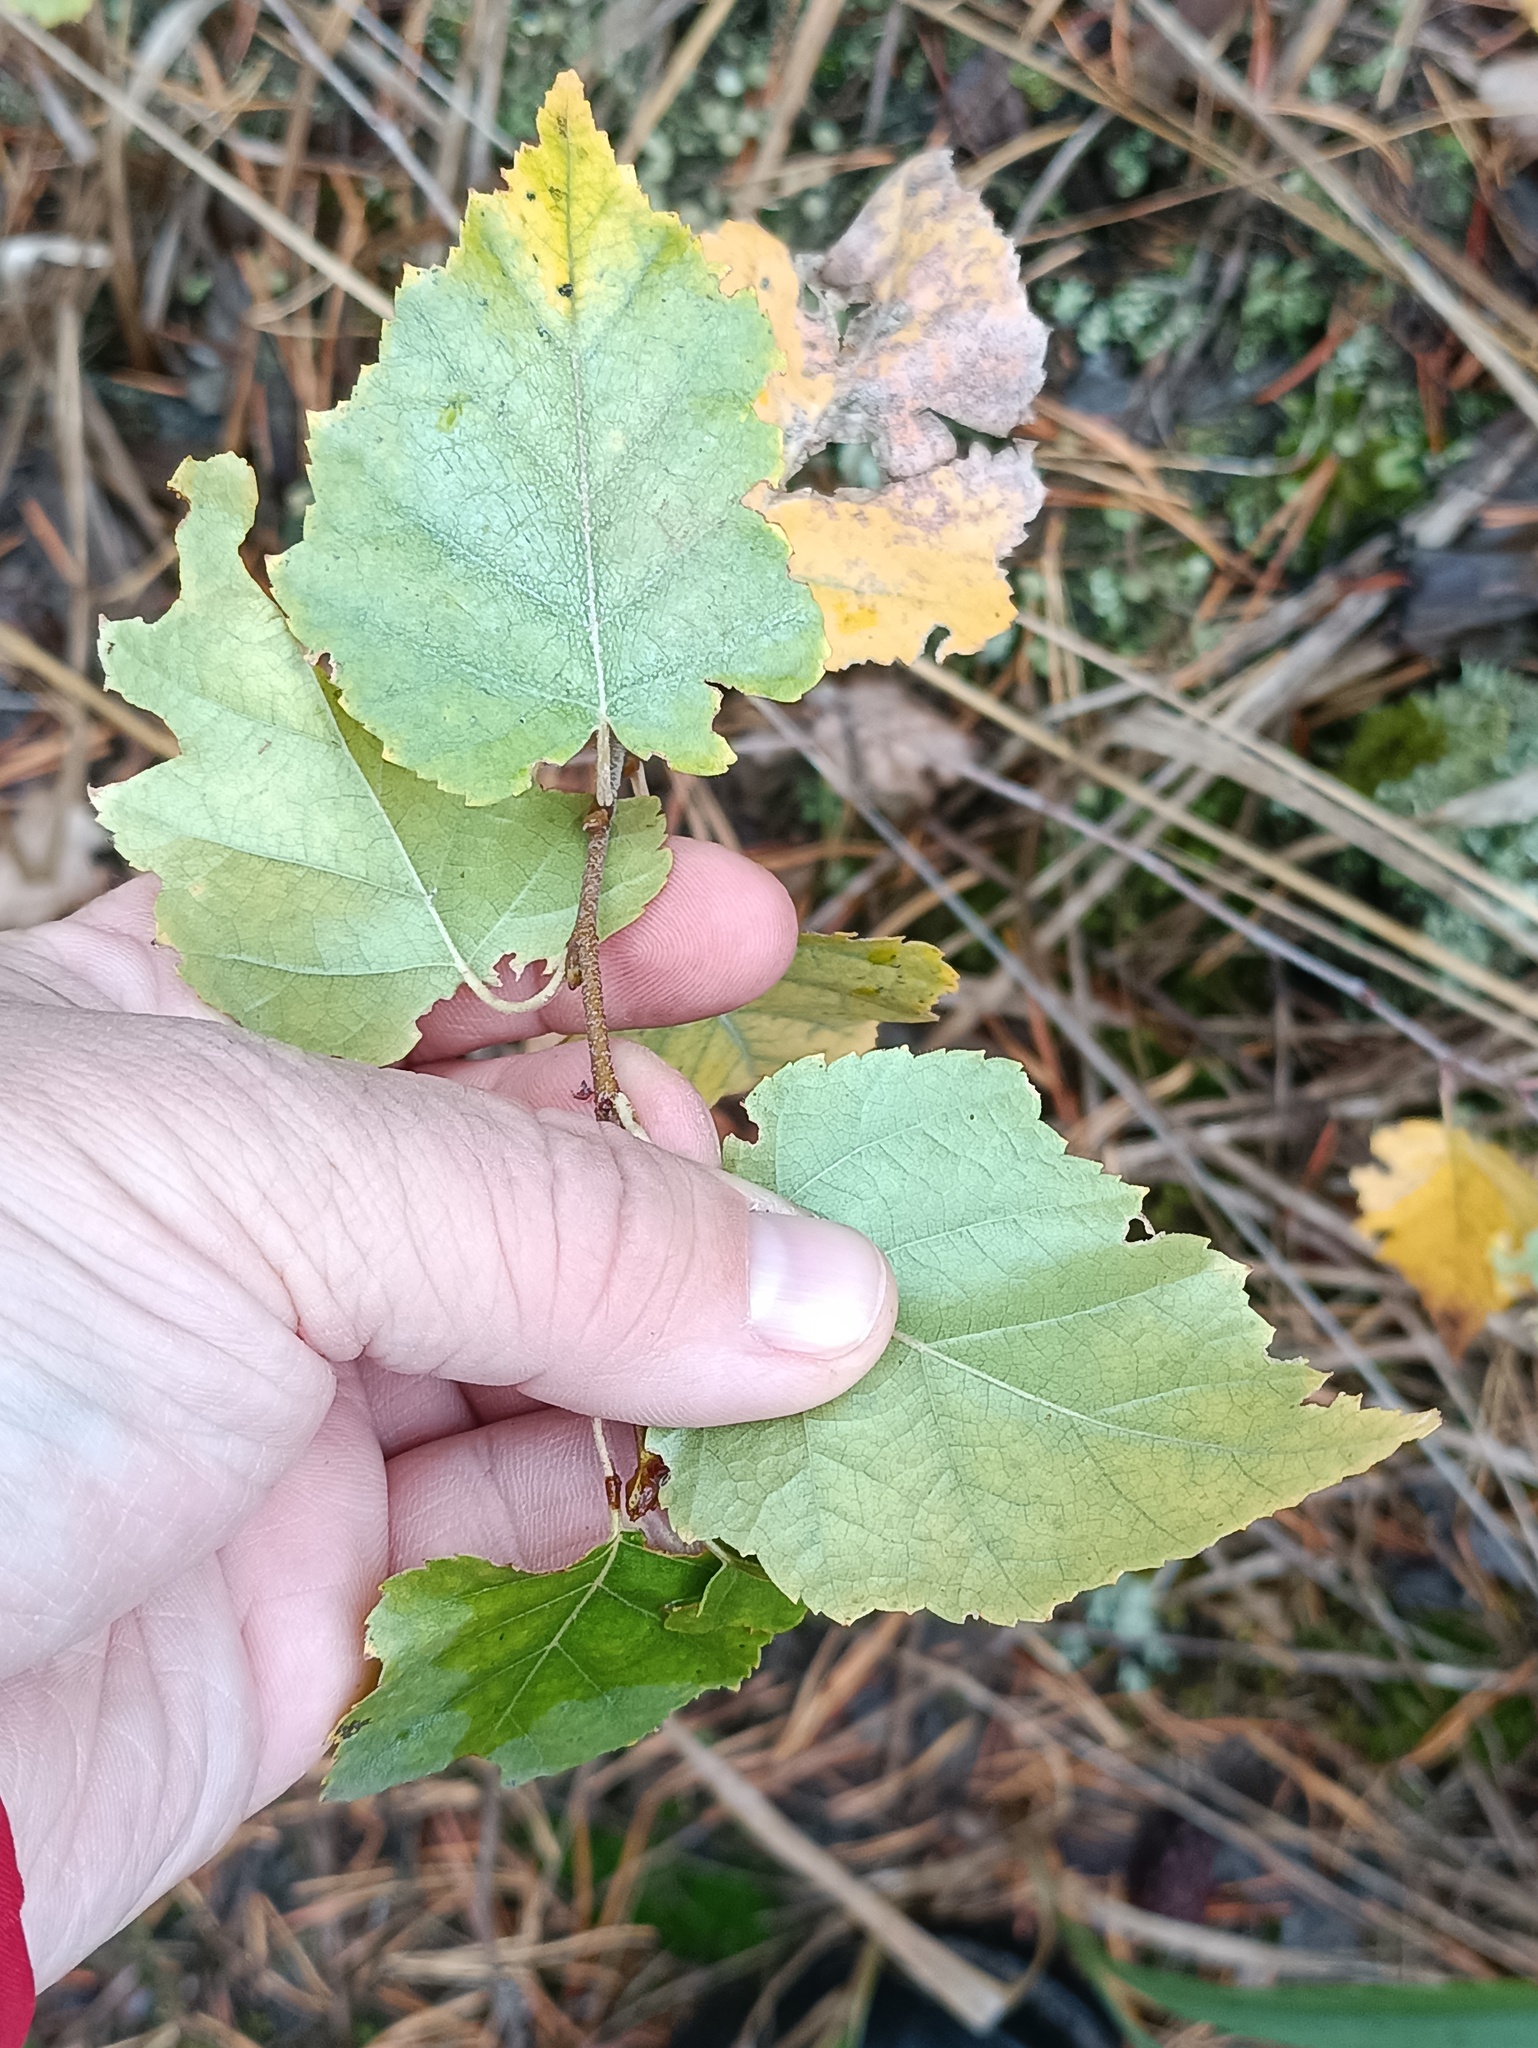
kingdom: Plantae
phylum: Tracheophyta
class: Magnoliopsida
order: Fagales
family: Betulaceae
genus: Betula
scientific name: Betula pendula
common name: Silver birch
